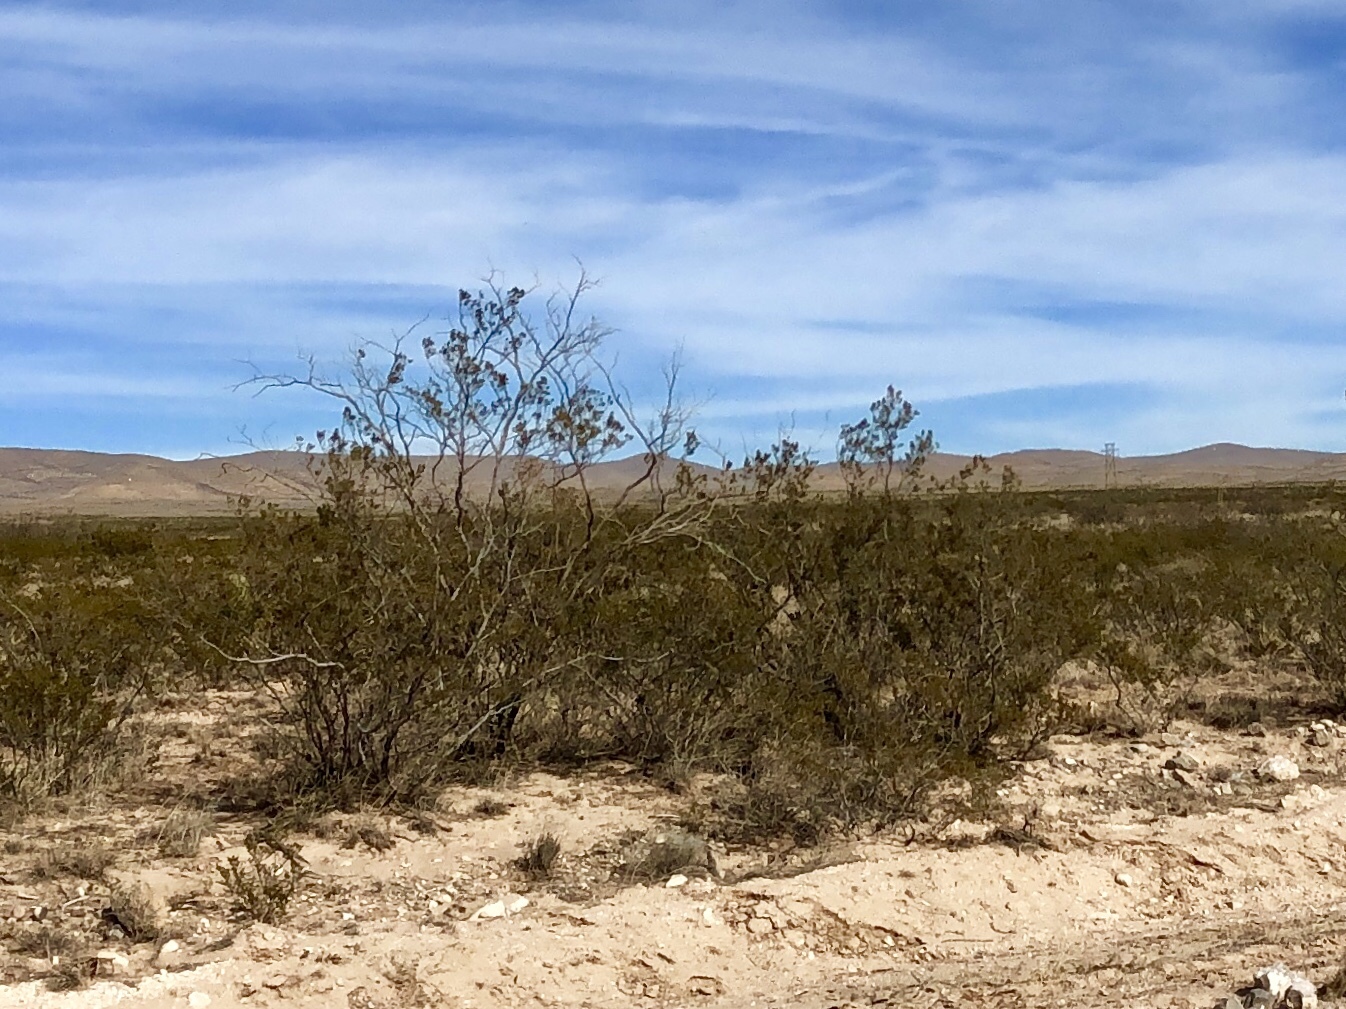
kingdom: Plantae
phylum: Tracheophyta
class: Magnoliopsida
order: Zygophyllales
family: Zygophyllaceae
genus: Larrea
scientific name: Larrea tridentata
